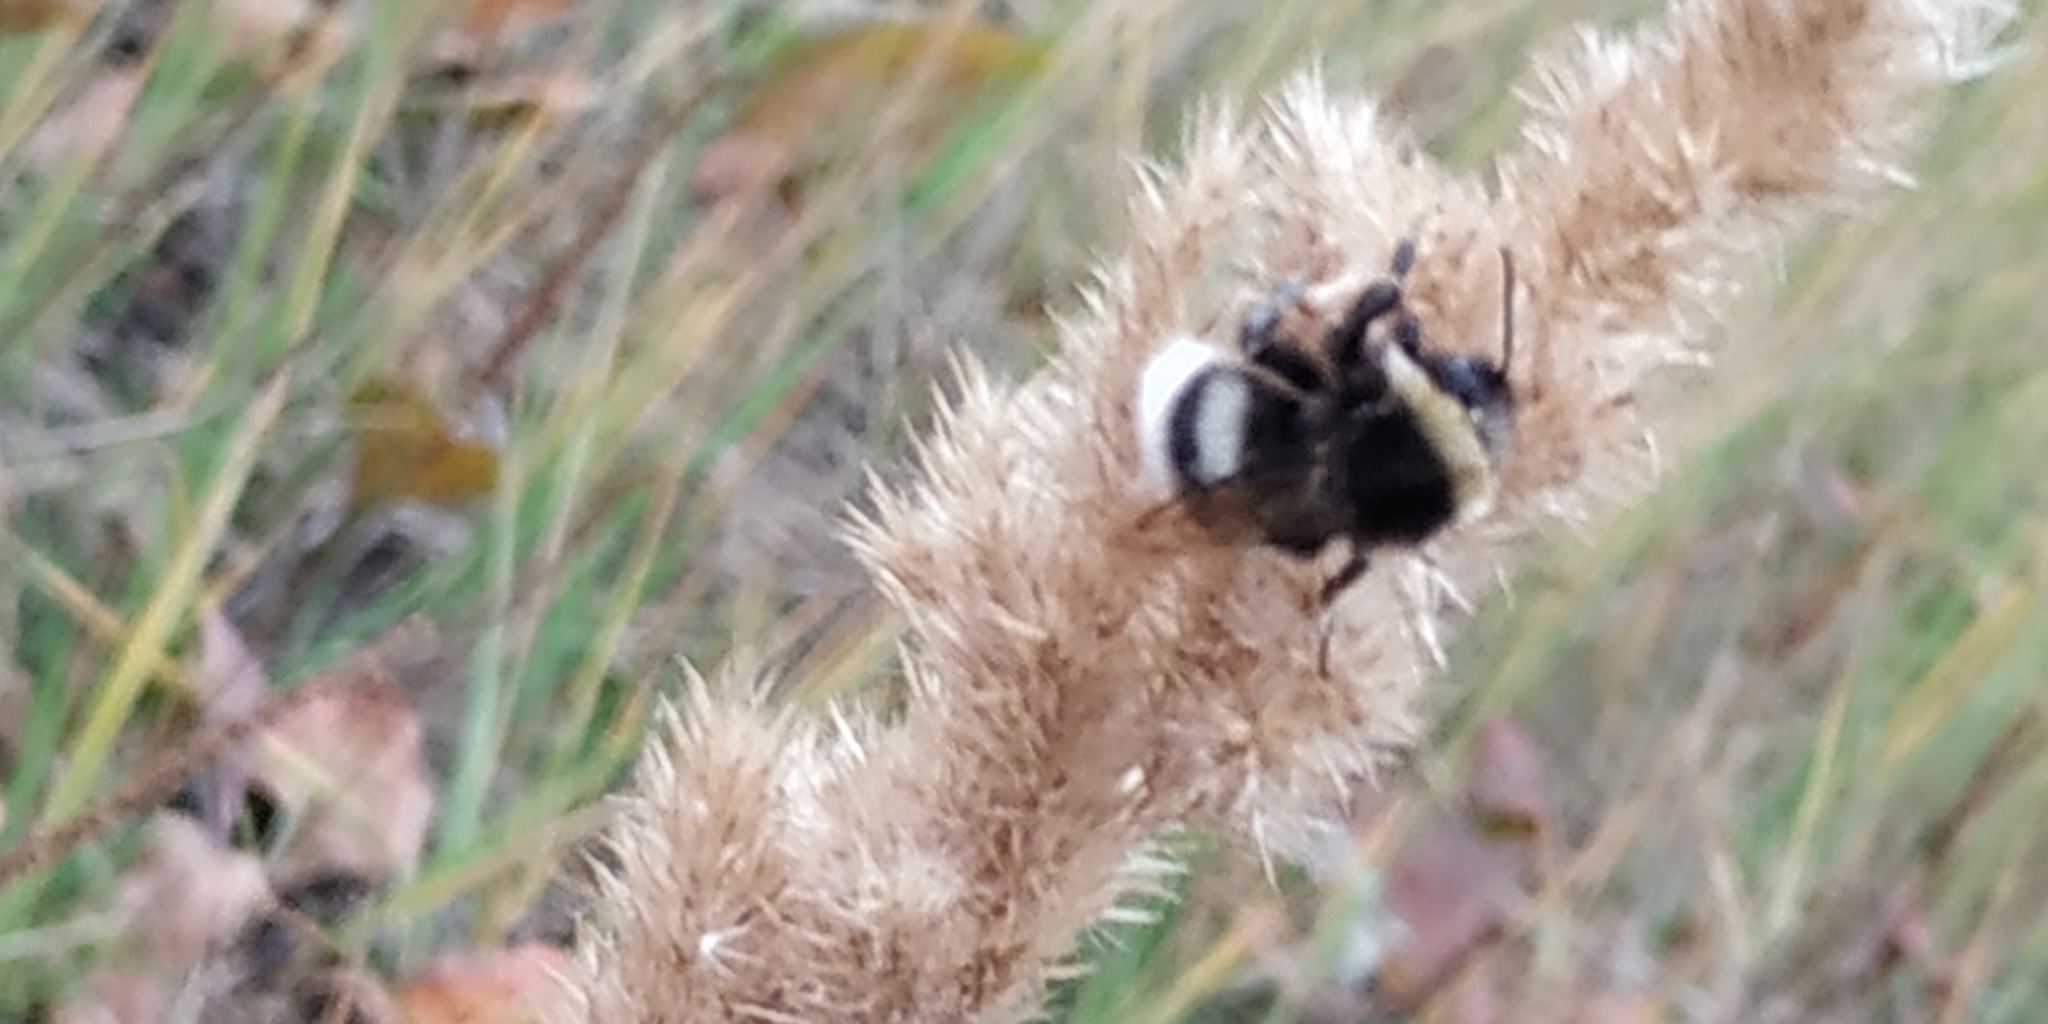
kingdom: Animalia
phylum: Arthropoda
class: Insecta
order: Hymenoptera
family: Apidae
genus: Bombus
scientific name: Bombus
